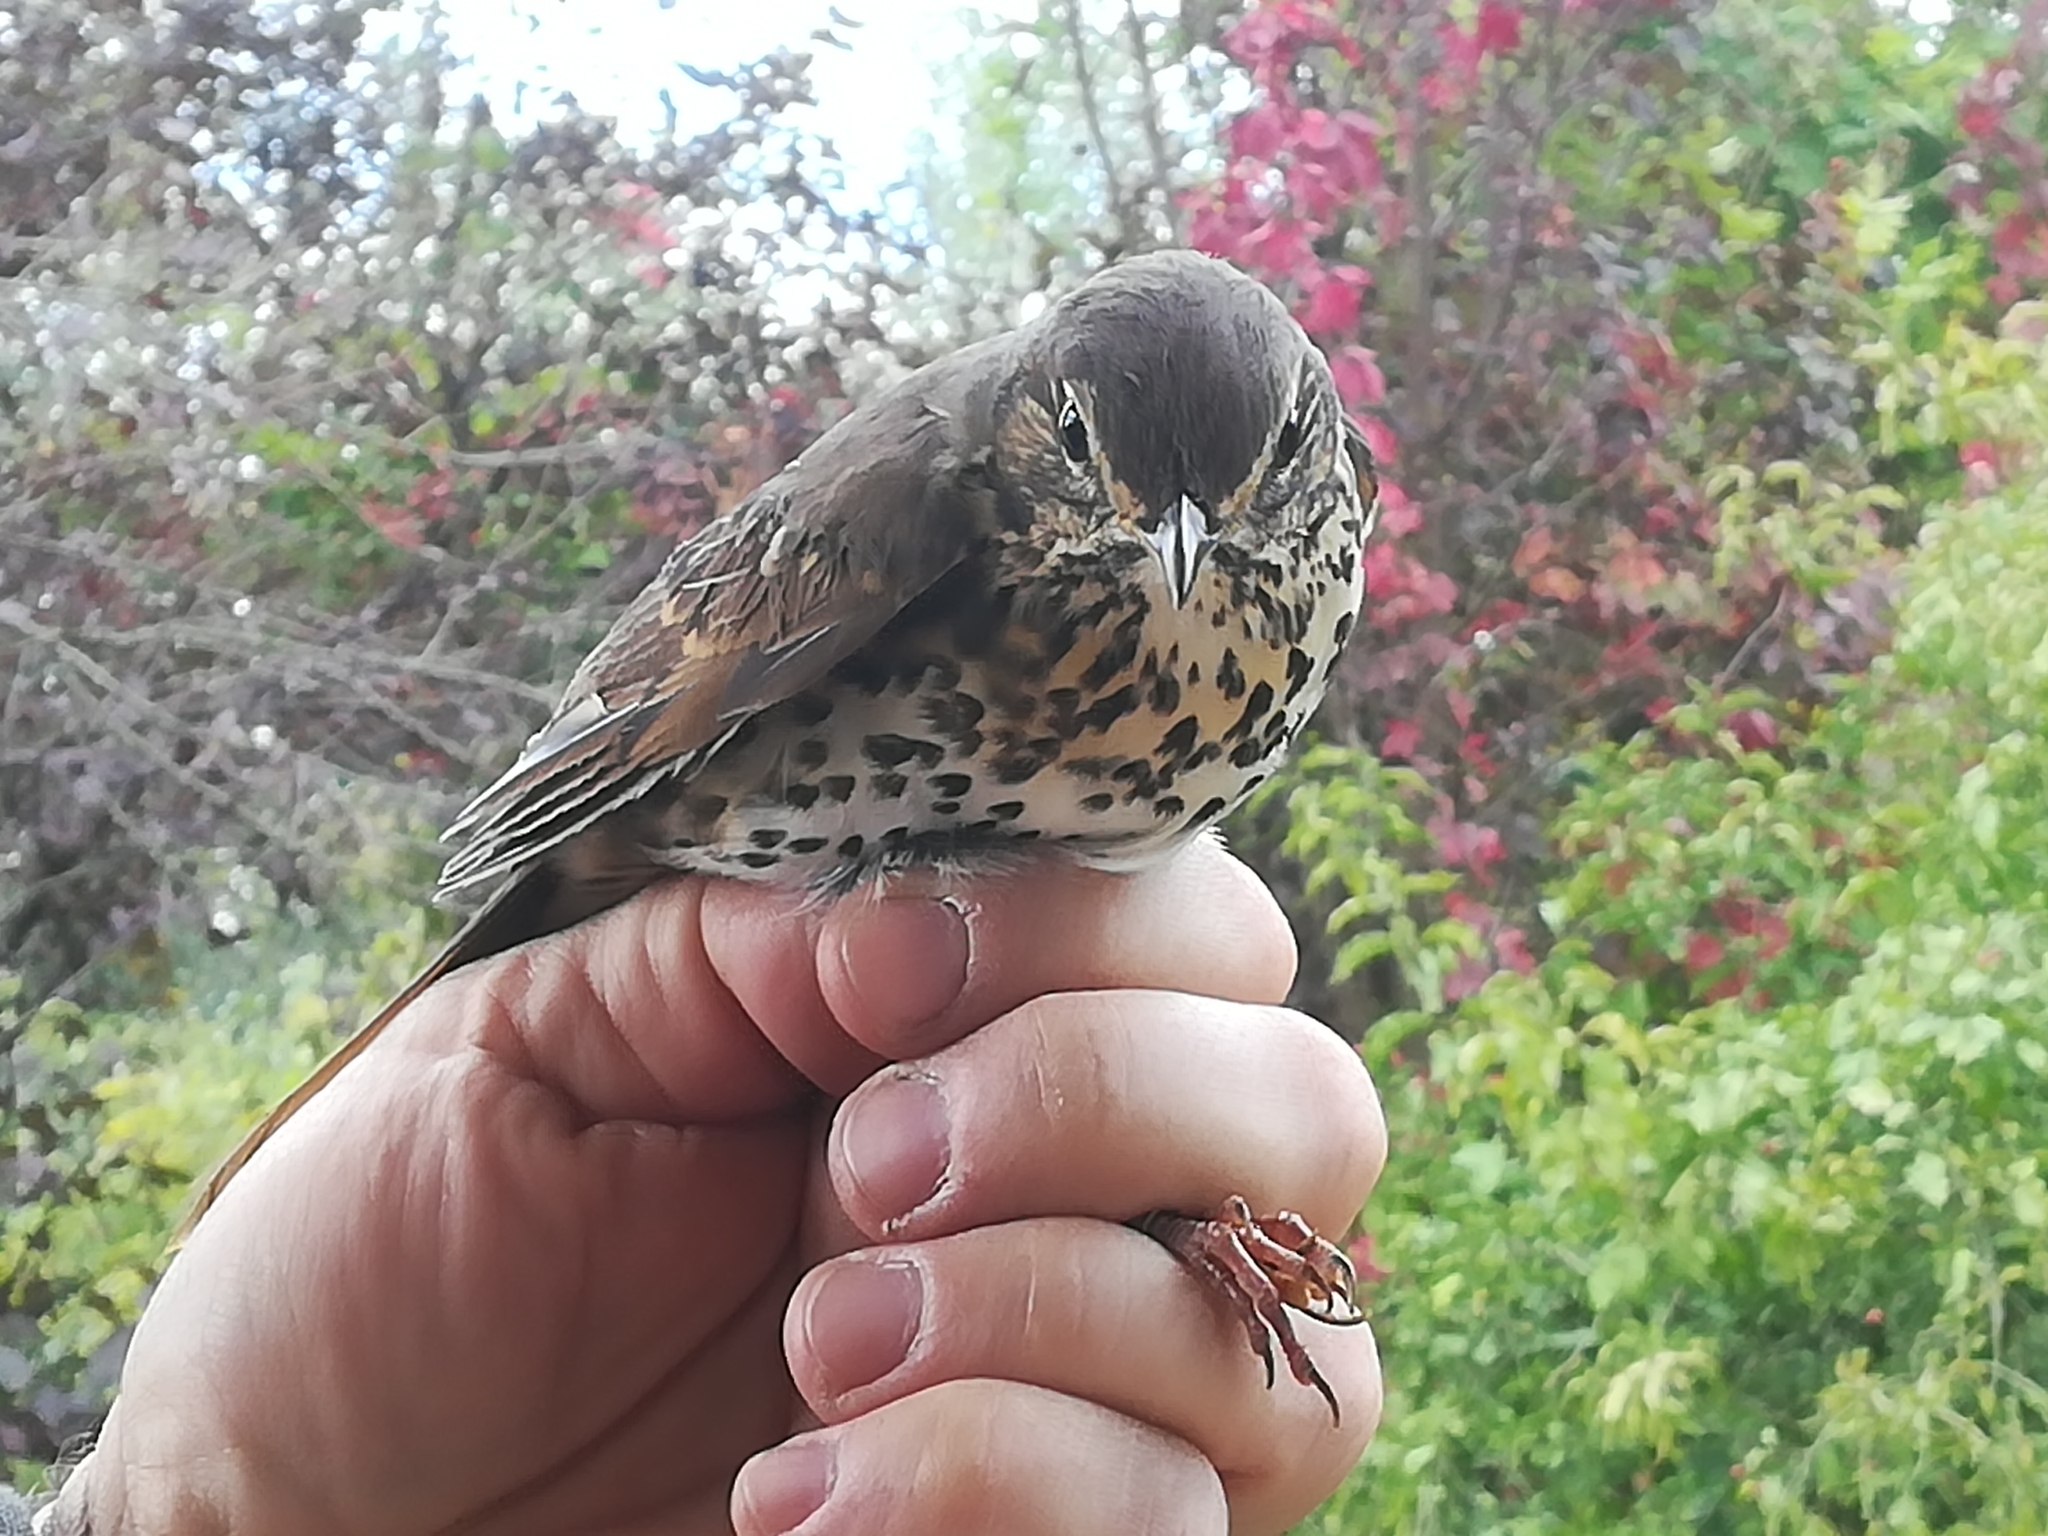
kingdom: Animalia
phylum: Chordata
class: Aves
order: Passeriformes
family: Turdidae
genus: Turdus
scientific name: Turdus philomelos
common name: Song thrush
